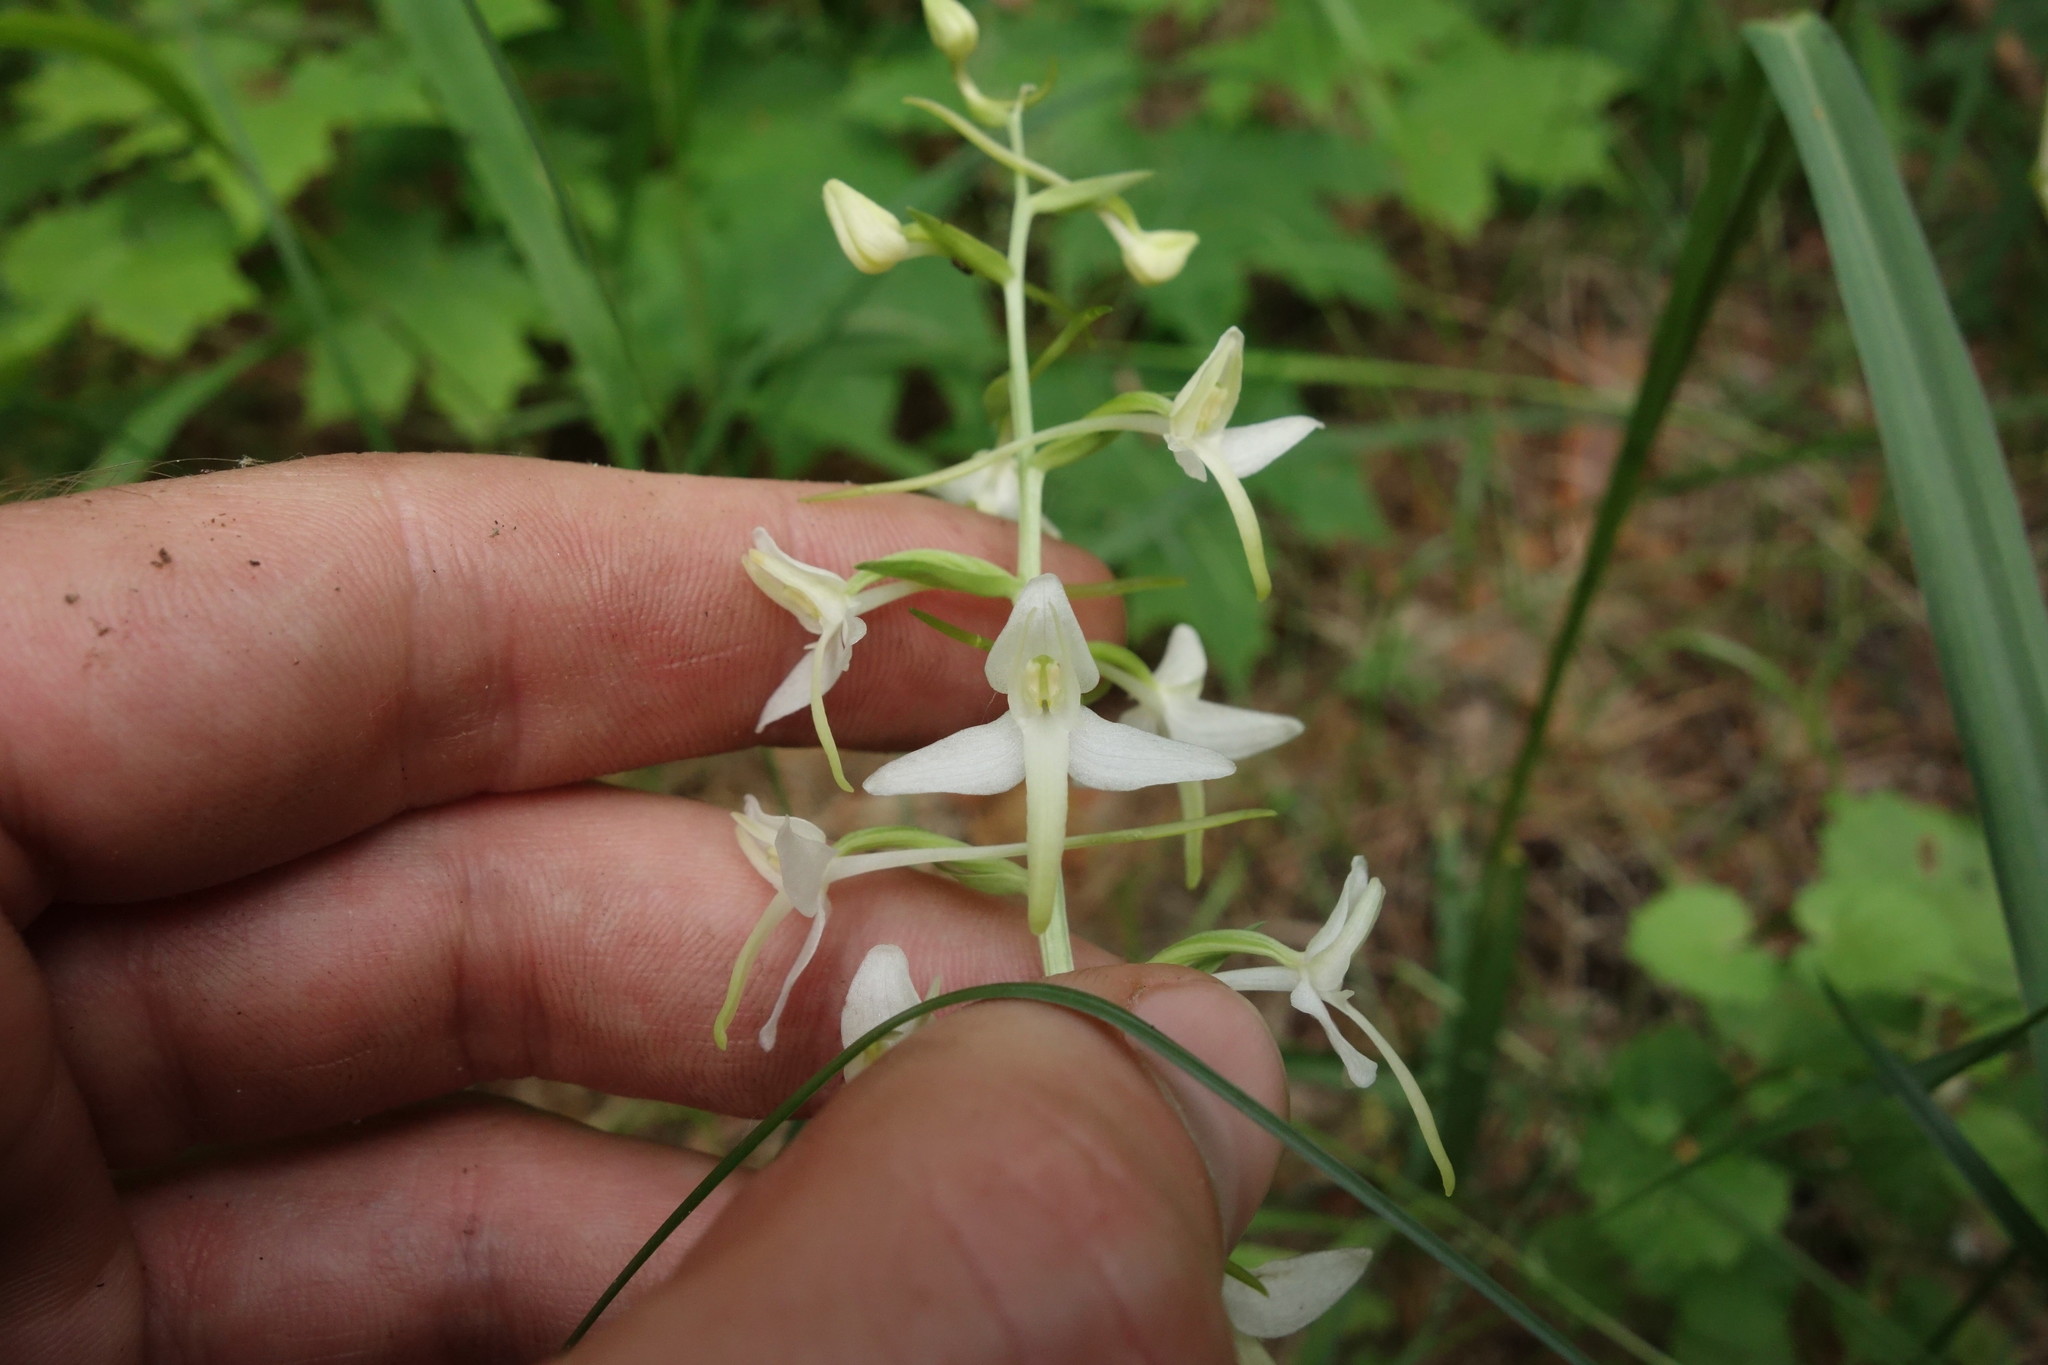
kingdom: Plantae
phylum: Tracheophyta
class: Liliopsida
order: Asparagales
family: Orchidaceae
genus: Platanthera
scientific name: Platanthera bifolia
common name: Lesser butterfly-orchid
